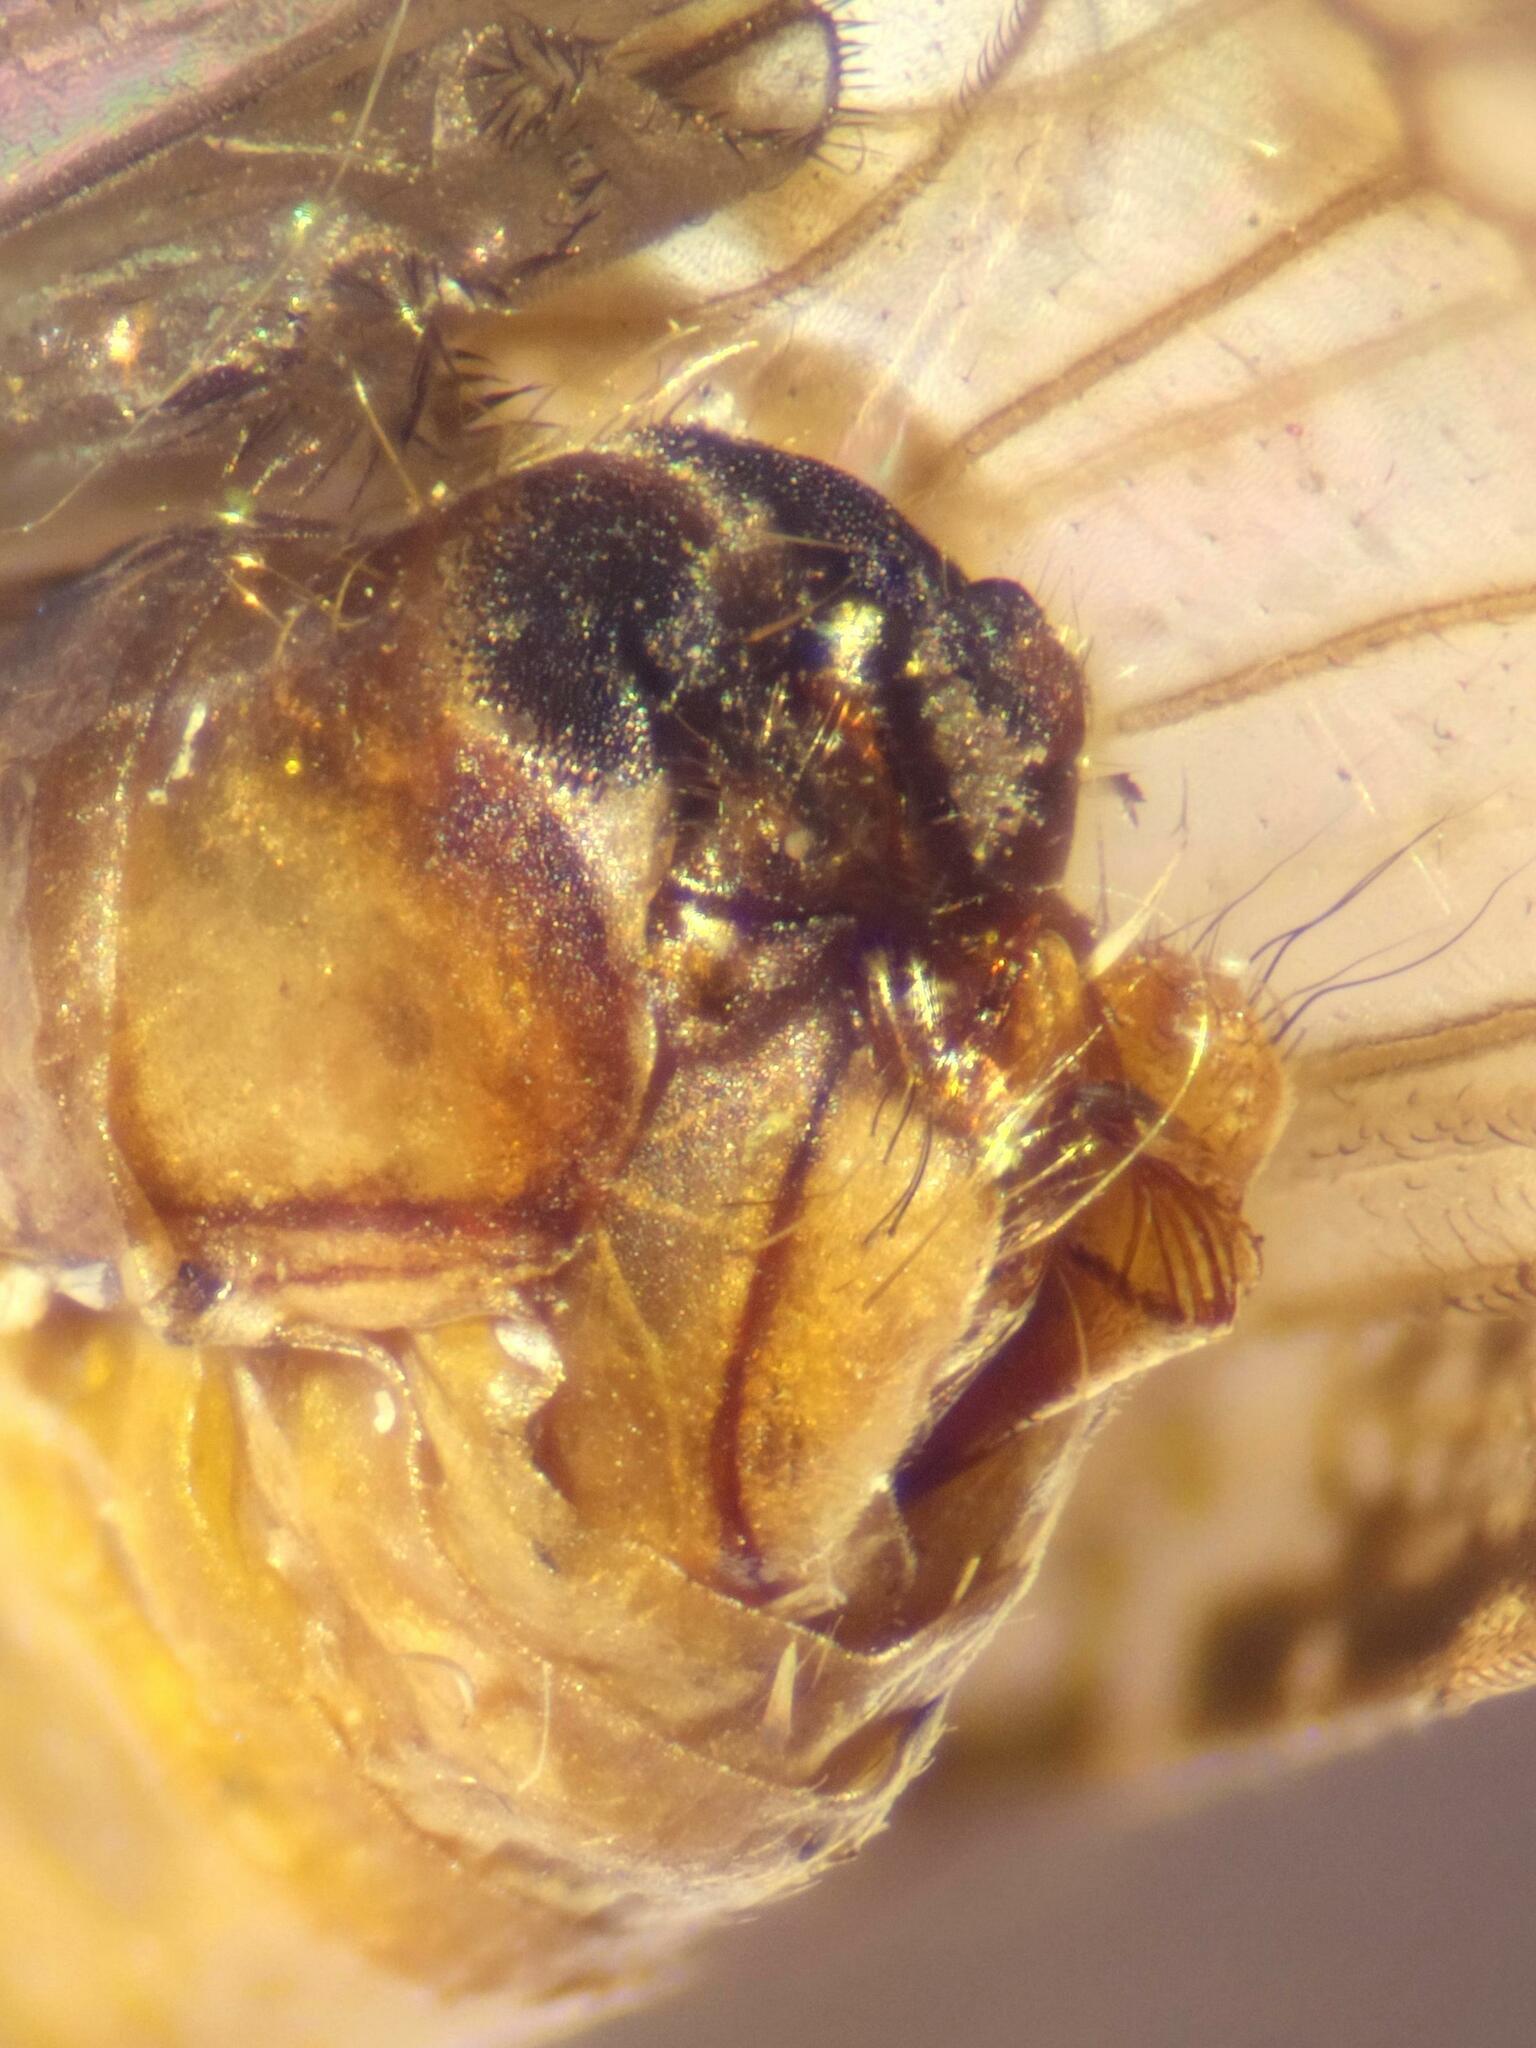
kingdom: Animalia
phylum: Arthropoda
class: Insecta
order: Trichoptera
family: Limnephilidae
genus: Glyphotaelius
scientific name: Glyphotaelius pellucidus
